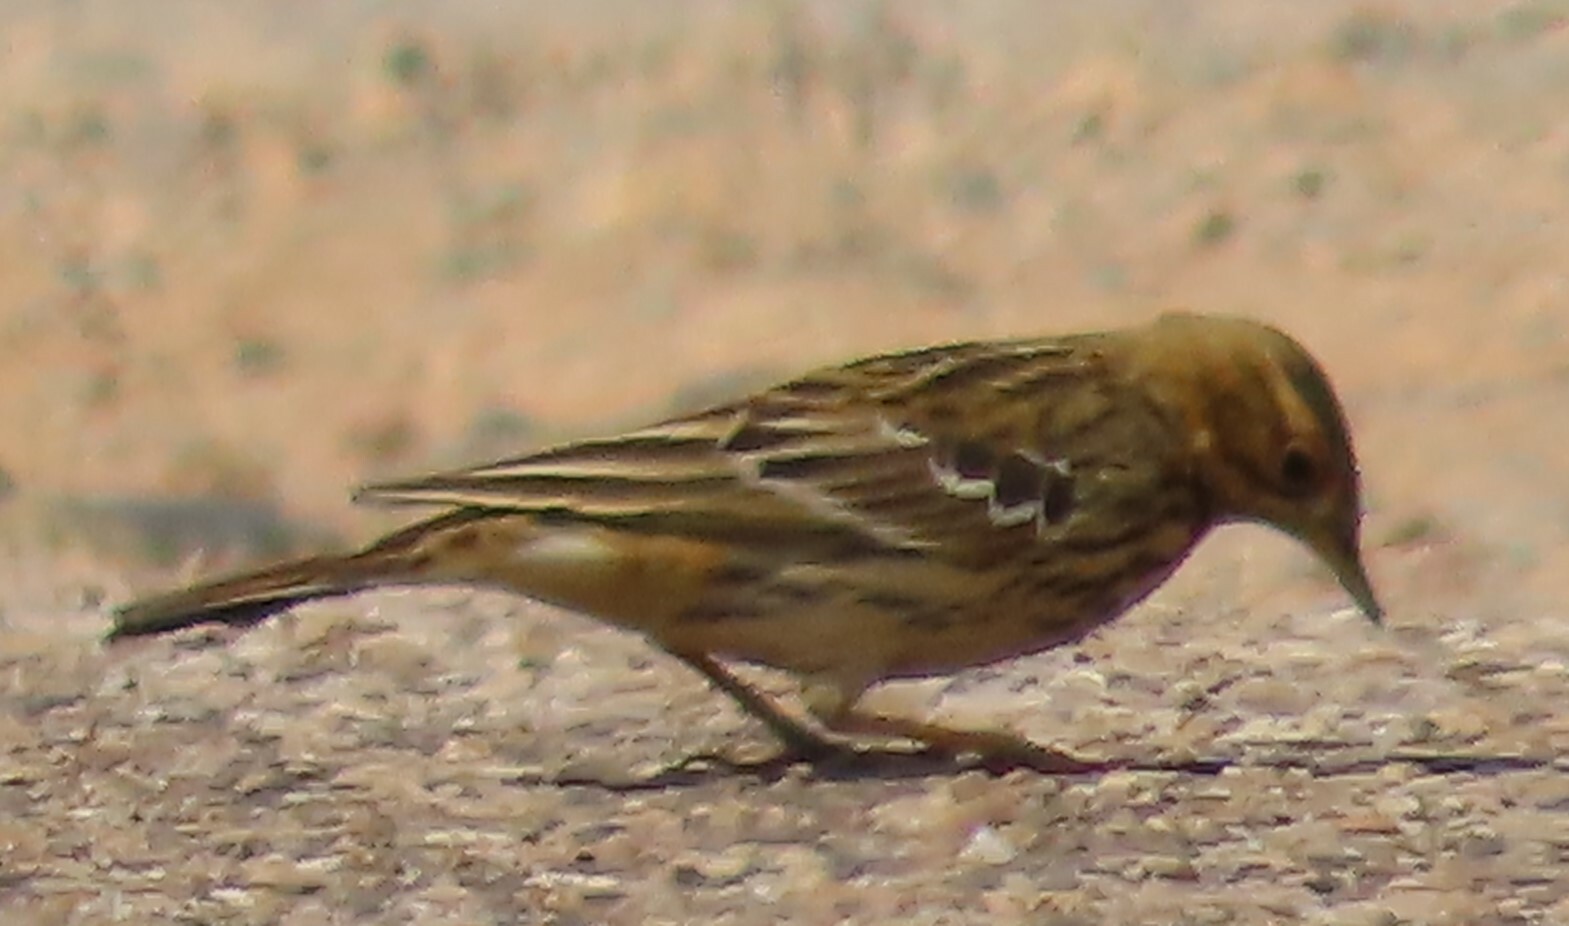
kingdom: Animalia
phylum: Chordata
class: Aves
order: Passeriformes
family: Motacillidae
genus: Anthus
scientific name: Anthus cervinus
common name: Red-throated pipit
